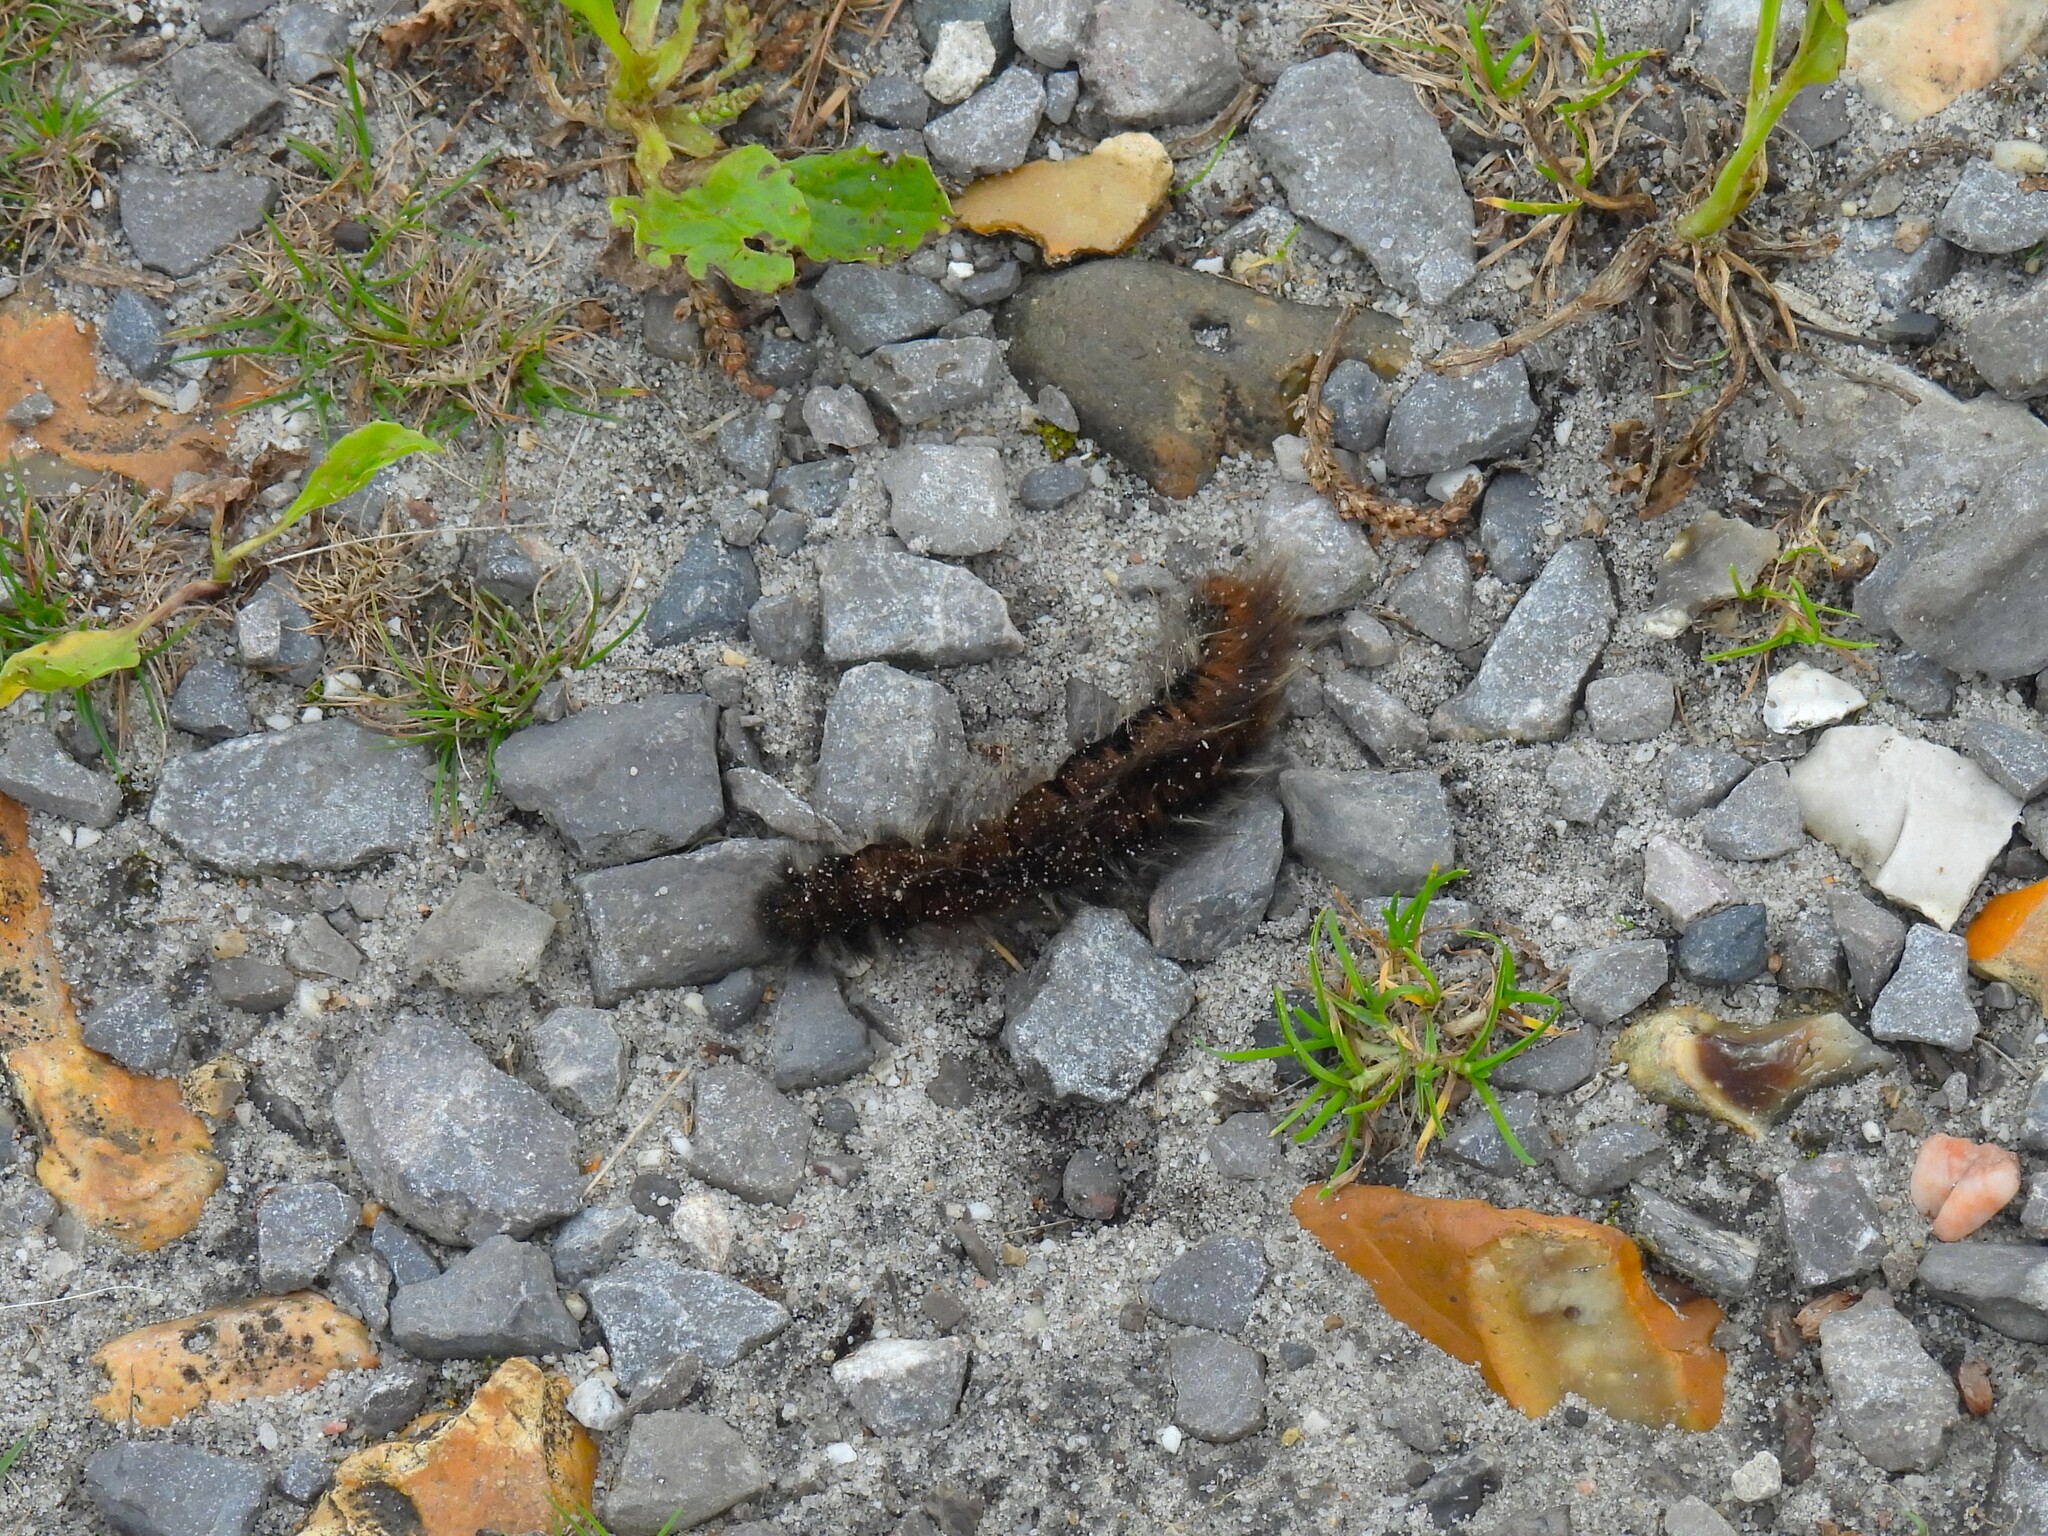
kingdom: Animalia
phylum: Arthropoda
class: Insecta
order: Lepidoptera
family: Lasiocampidae
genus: Macrothylacia
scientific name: Macrothylacia rubi
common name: Fox moth
